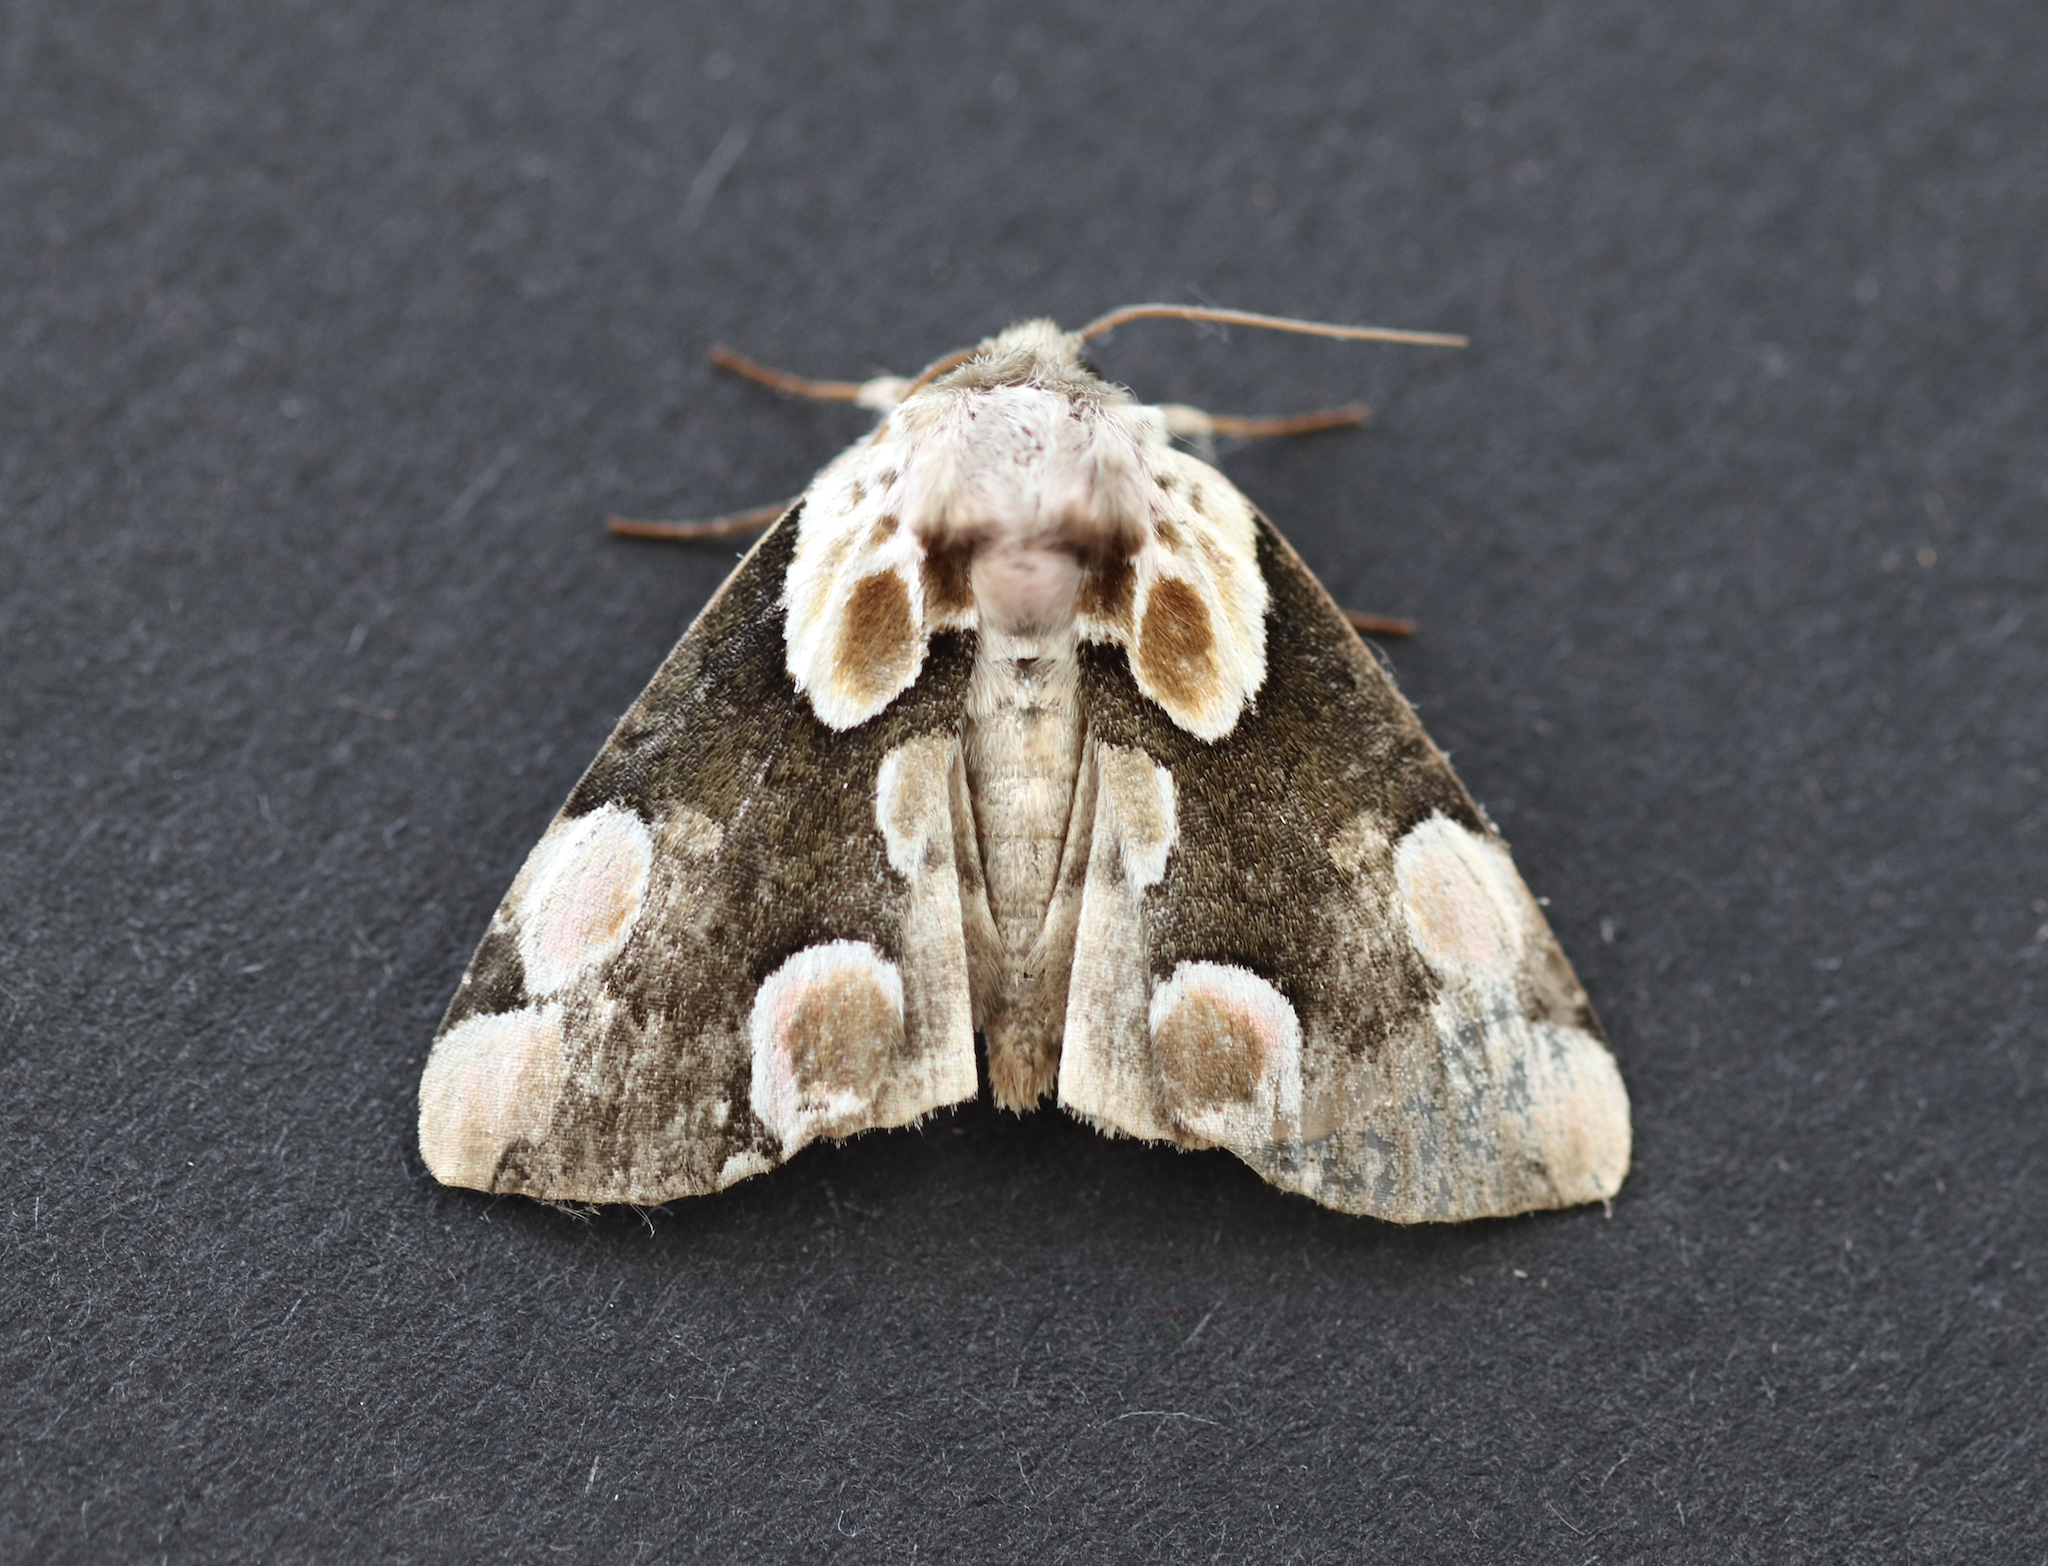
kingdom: Animalia
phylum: Arthropoda
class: Insecta
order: Lepidoptera
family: Drepanidae
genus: Thyatira
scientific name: Thyatira batis
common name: Peach blossom
